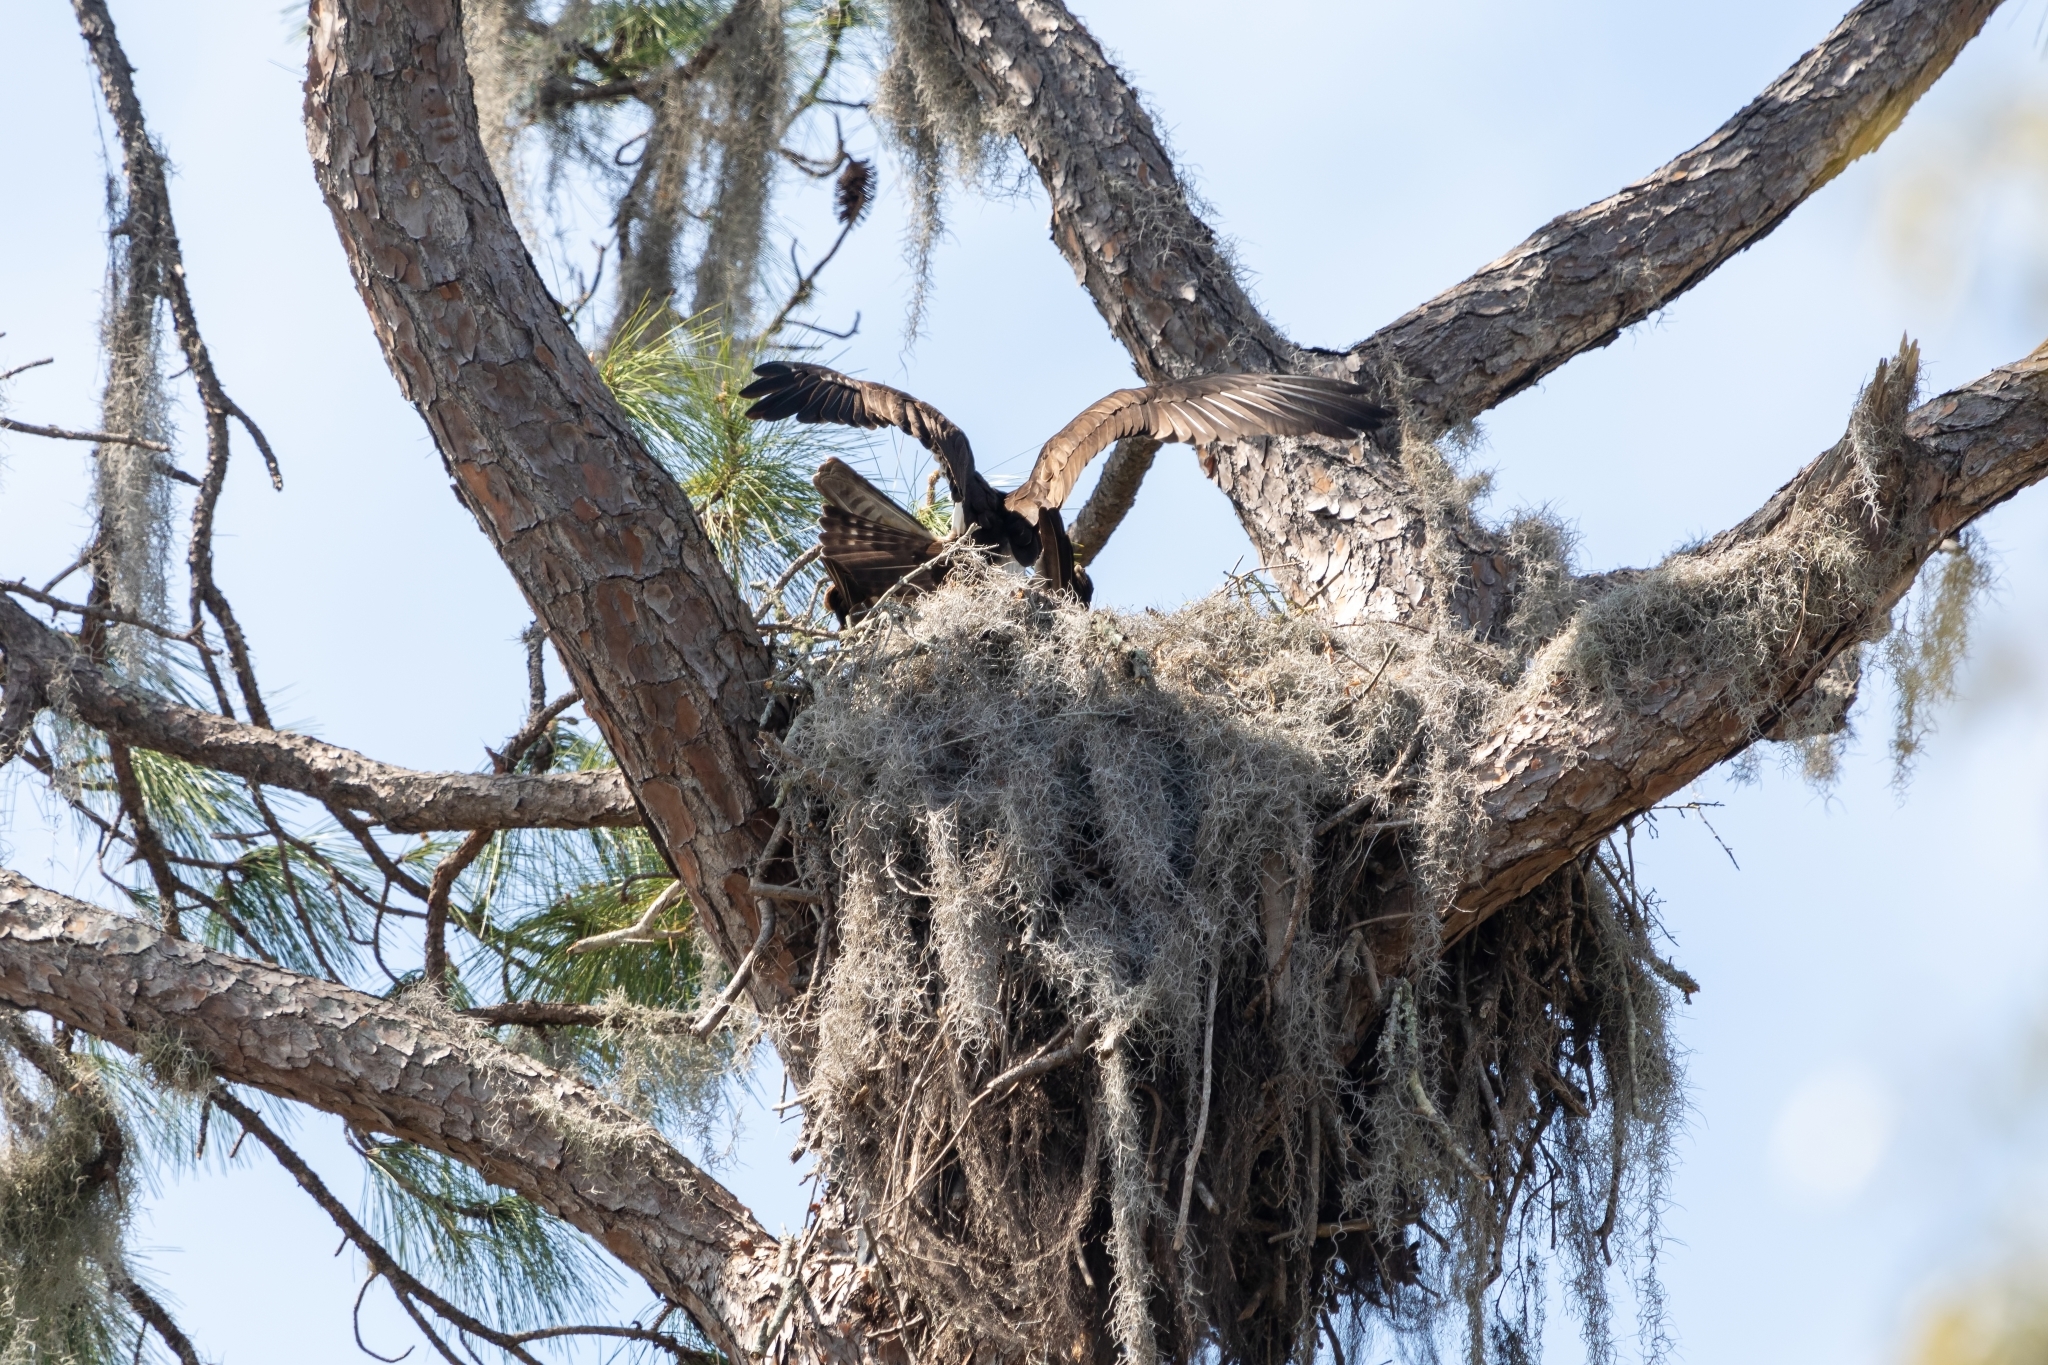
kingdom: Animalia
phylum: Chordata
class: Aves
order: Accipitriformes
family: Pandionidae
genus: Pandion
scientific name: Pandion haliaetus
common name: Osprey
